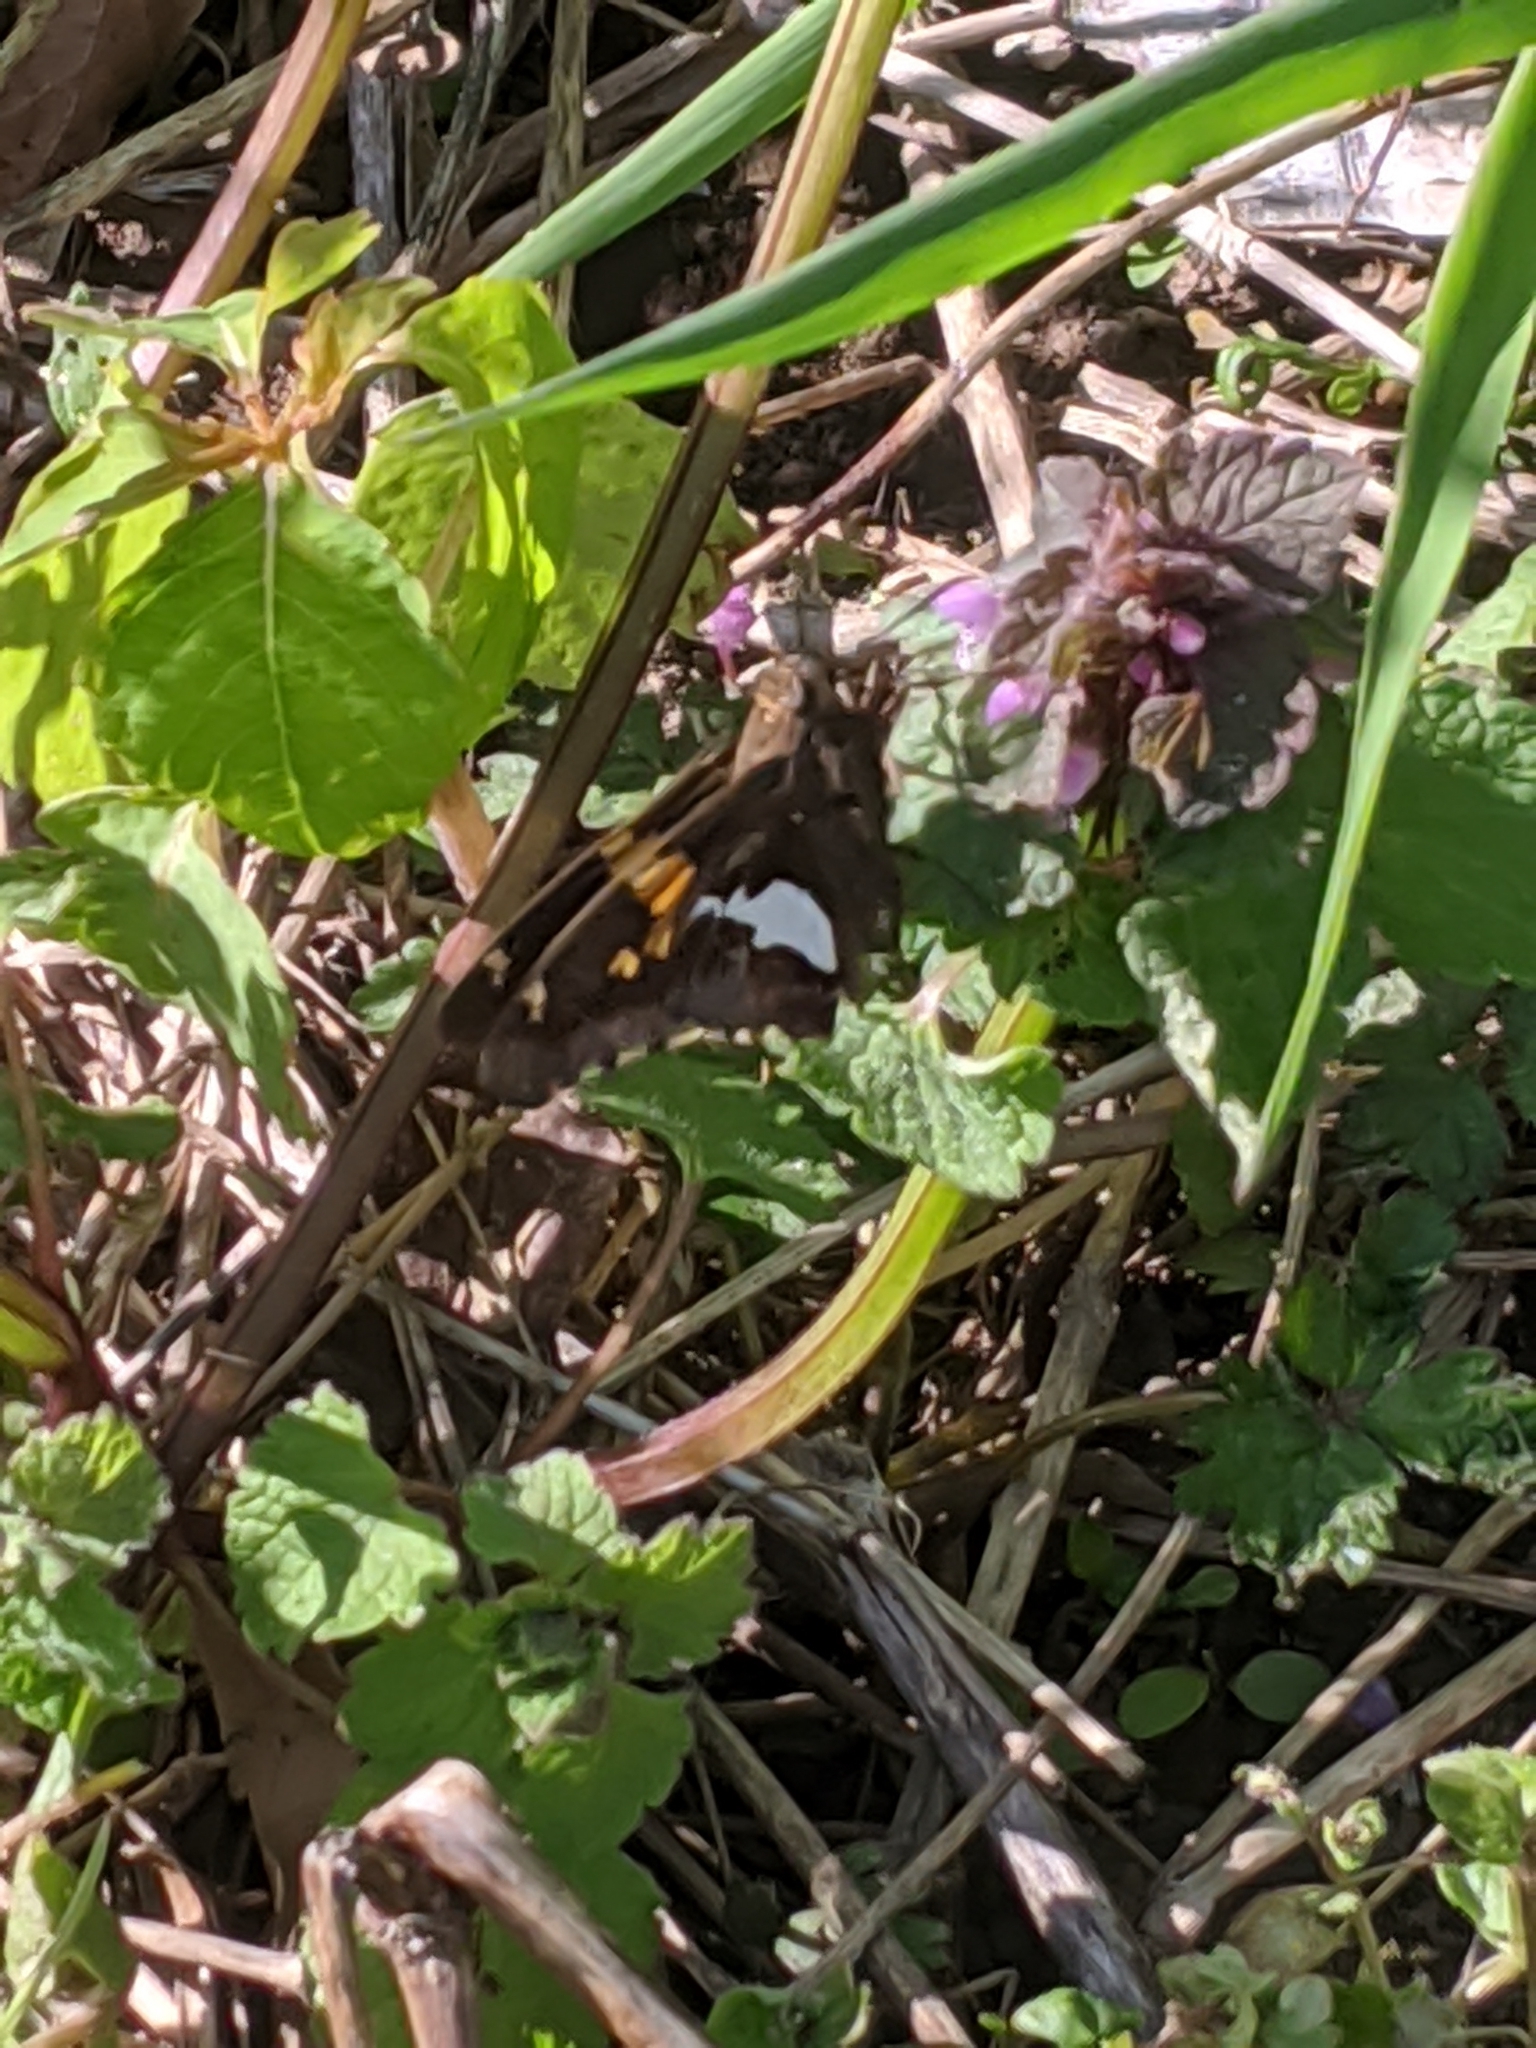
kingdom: Animalia
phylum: Arthropoda
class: Insecta
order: Lepidoptera
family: Hesperiidae
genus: Epargyreus
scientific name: Epargyreus clarus
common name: Silver-spotted skipper
